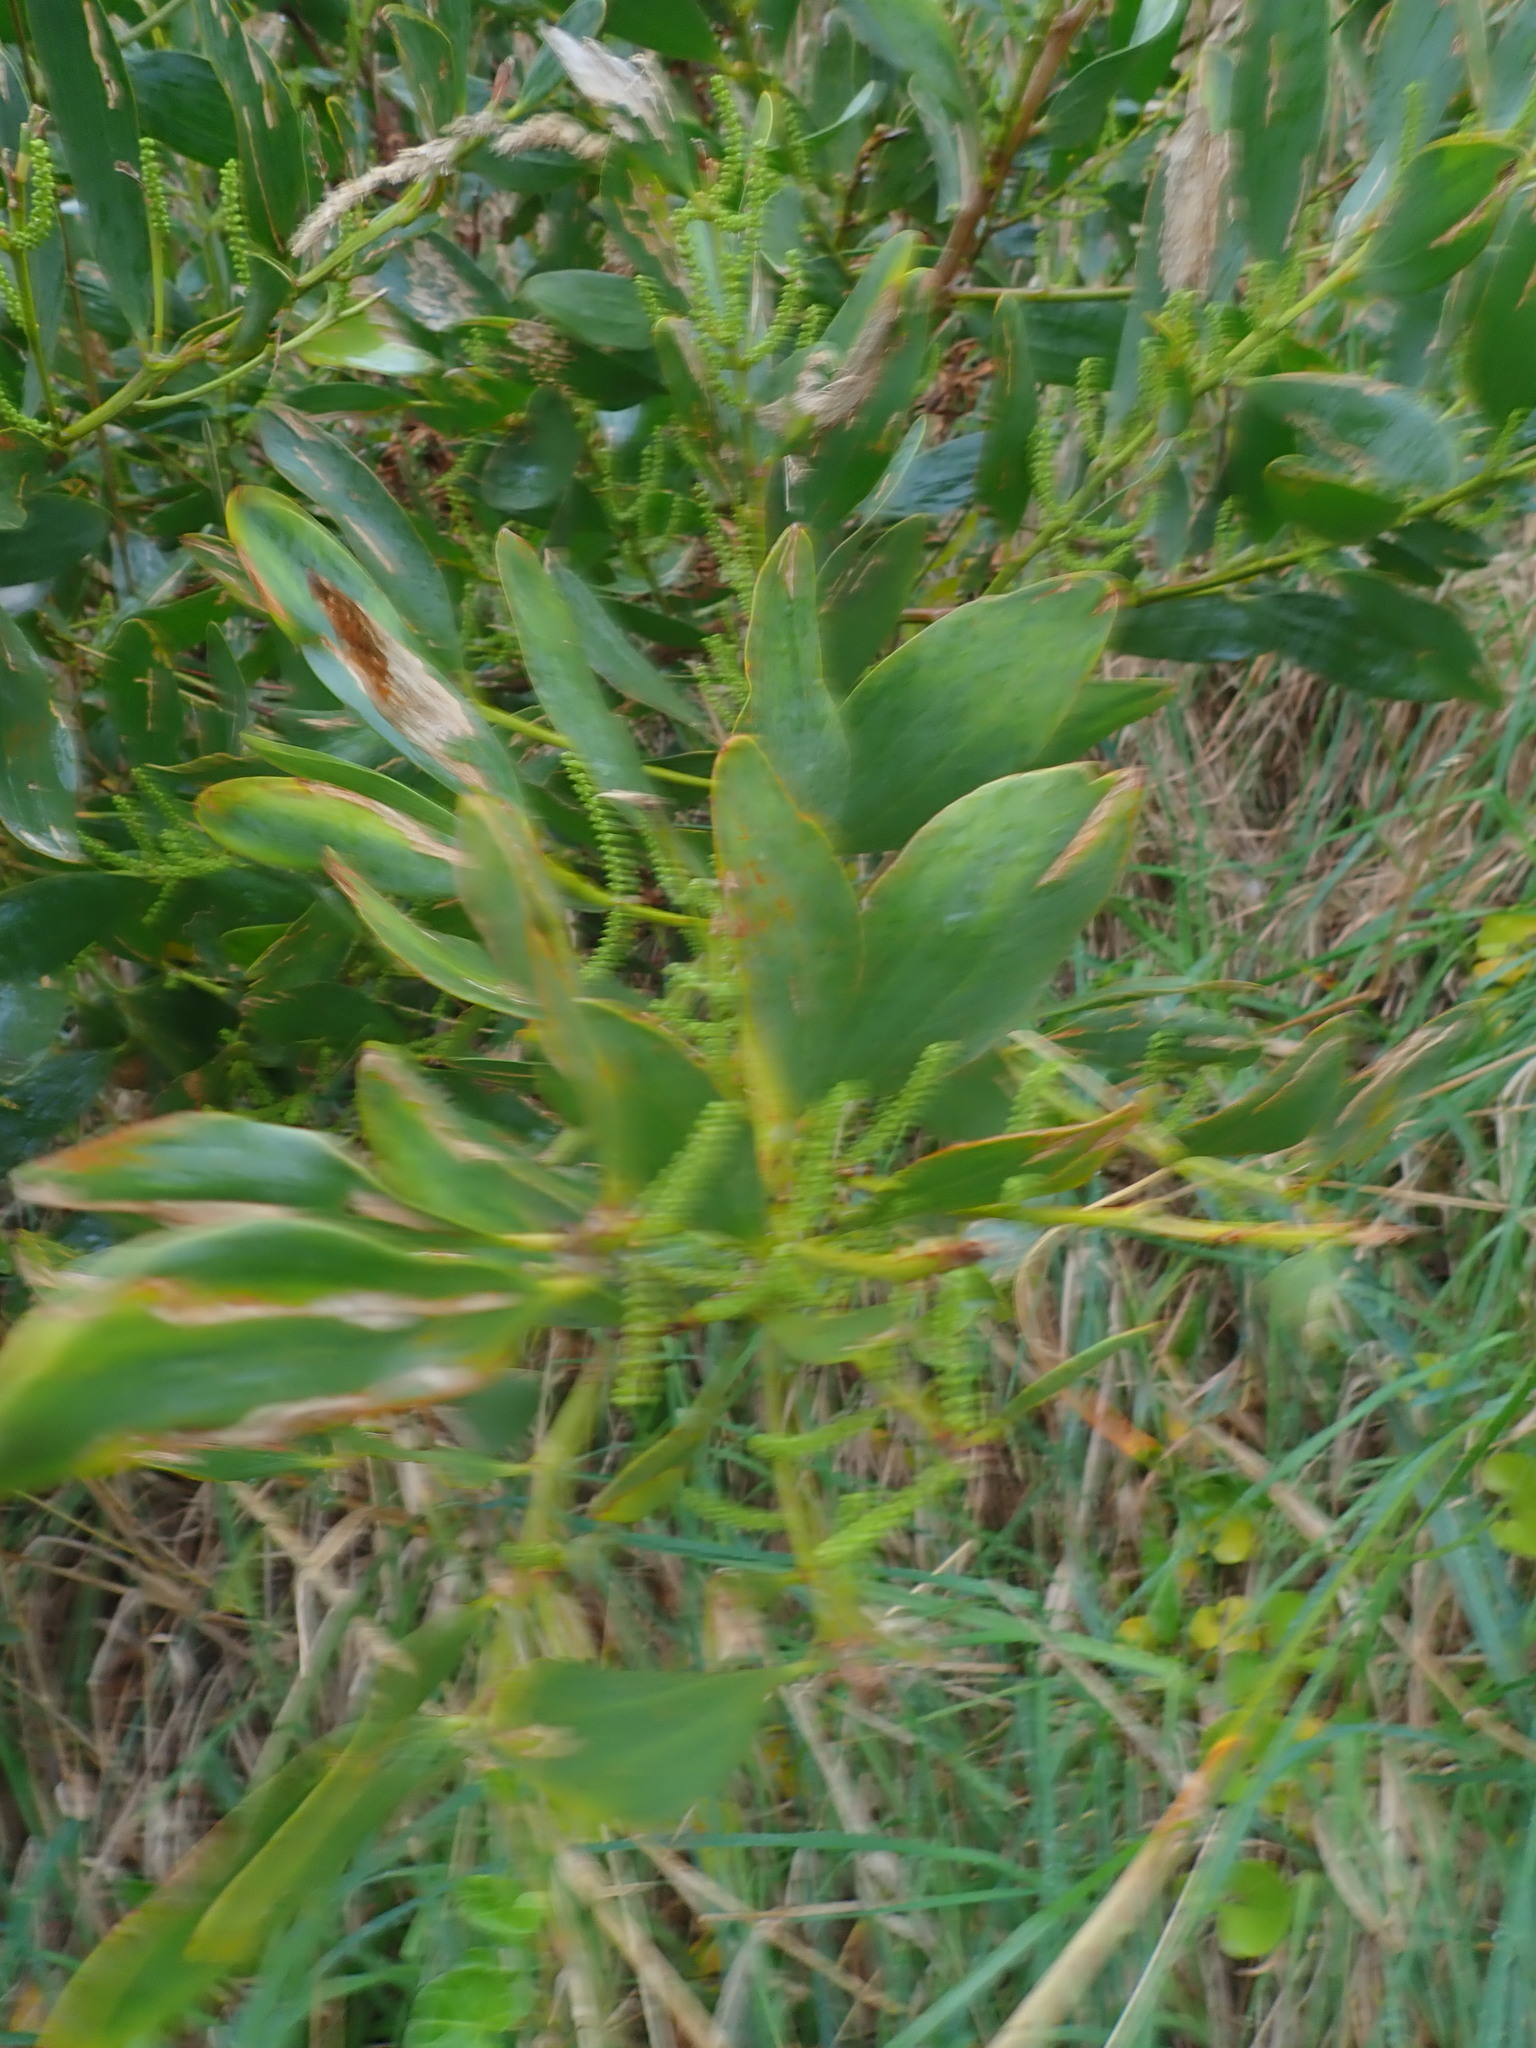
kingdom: Plantae
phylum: Tracheophyta
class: Magnoliopsida
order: Fabales
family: Fabaceae
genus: Acacia
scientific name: Acacia longifolia
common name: Sydney golden wattle
